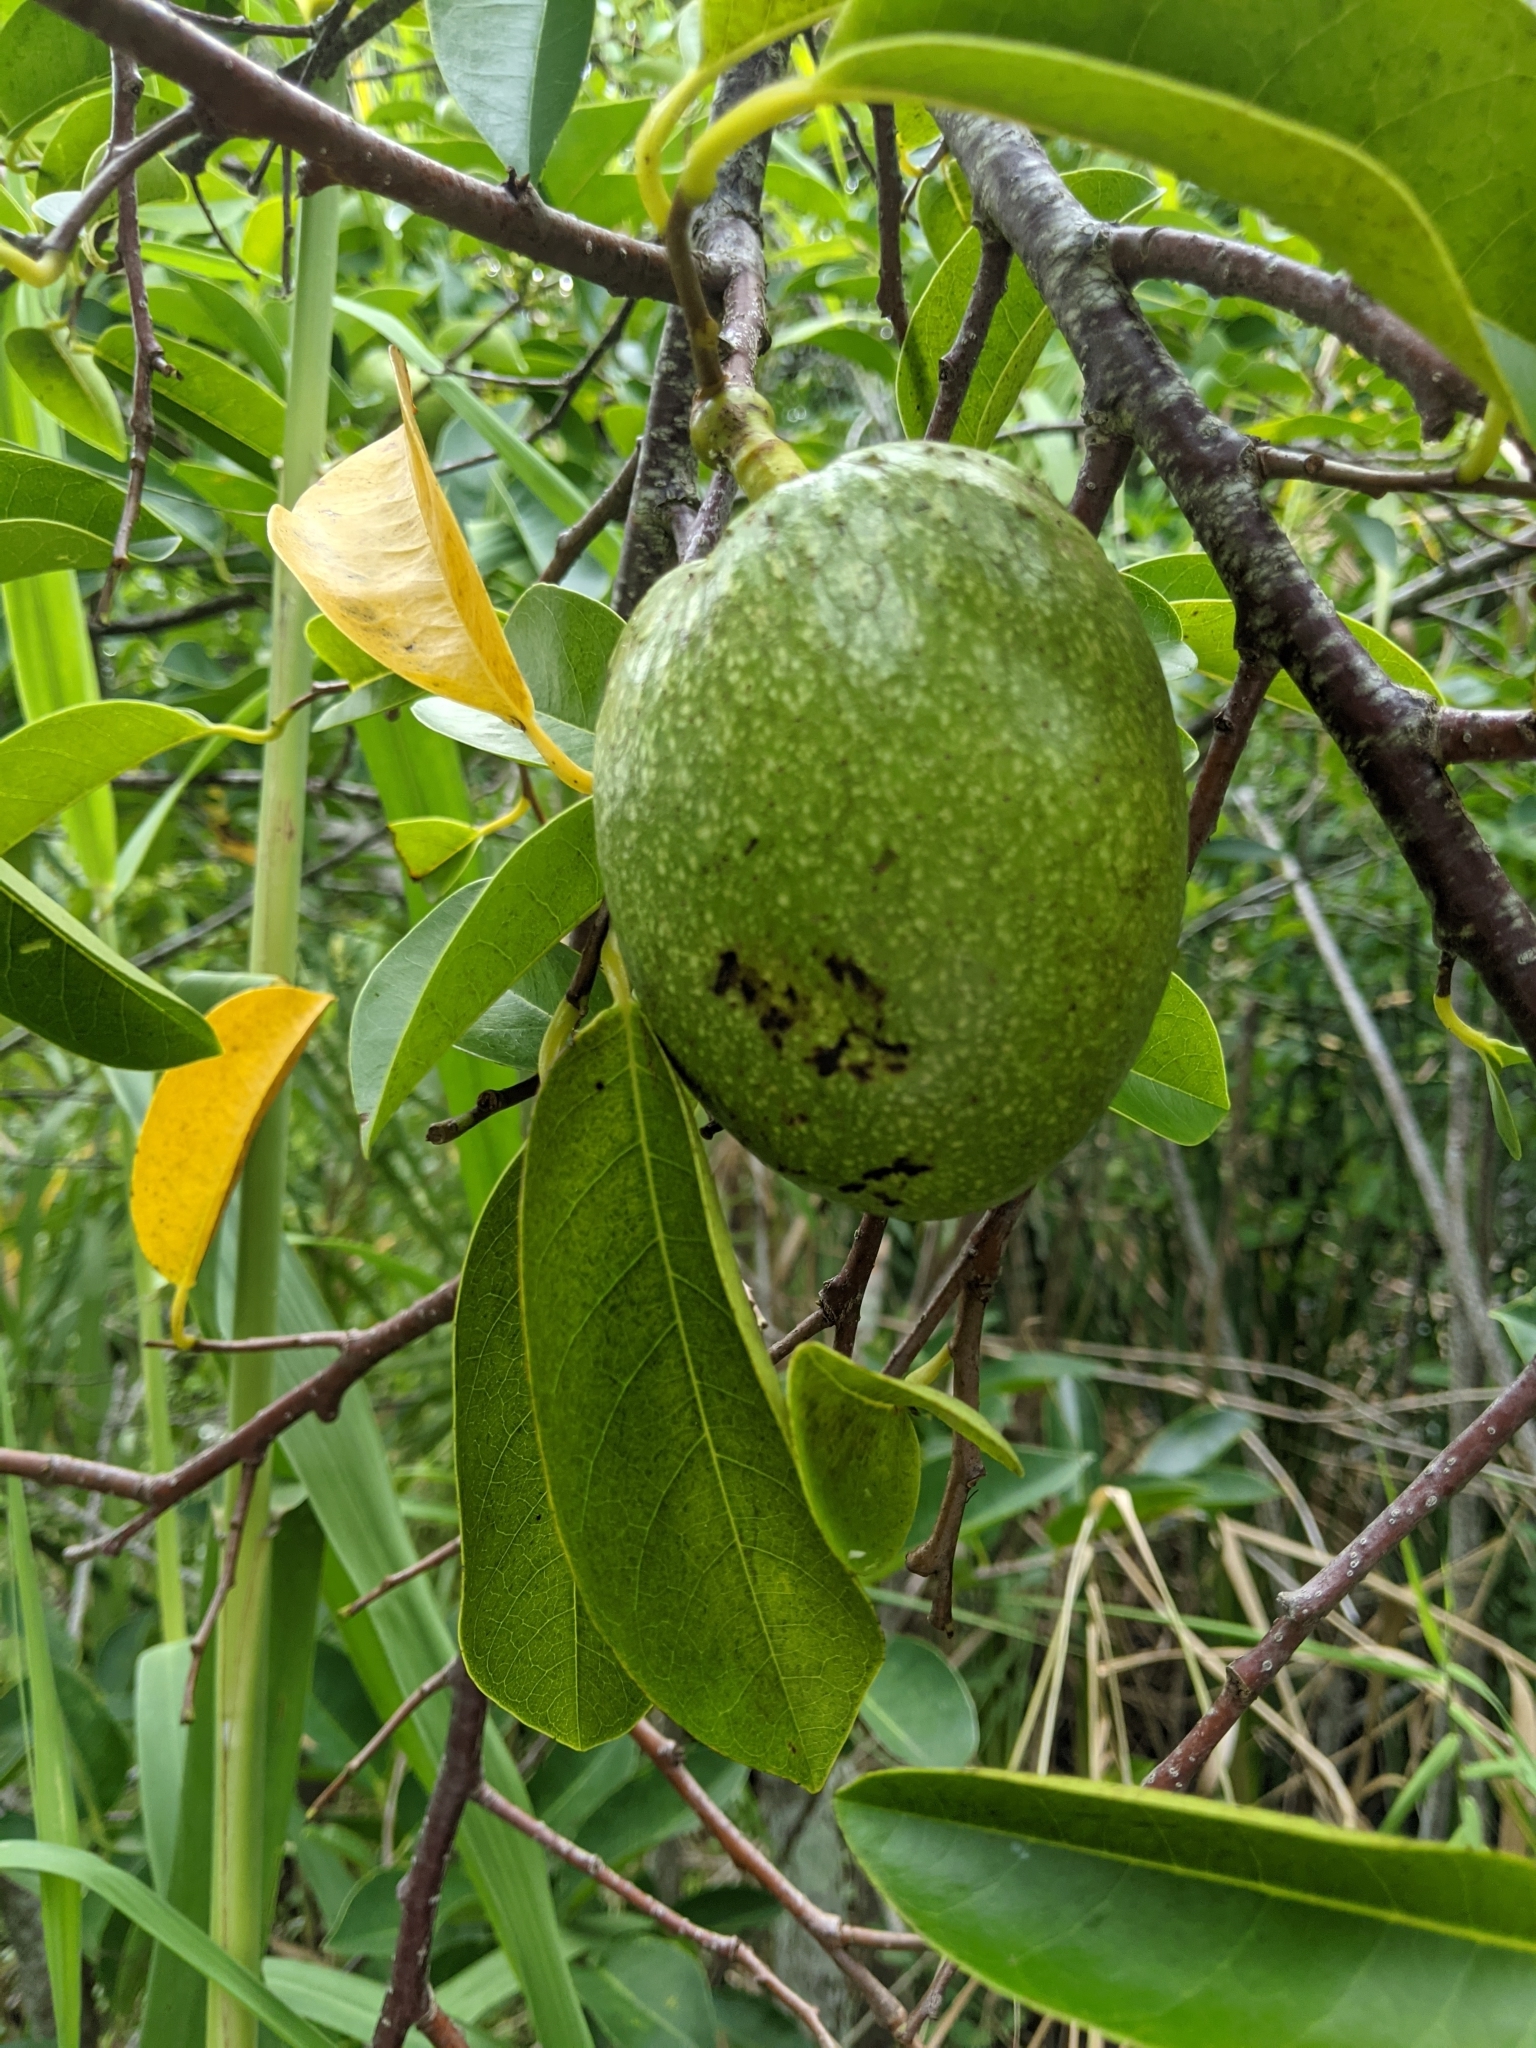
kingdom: Plantae
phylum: Tracheophyta
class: Magnoliopsida
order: Magnoliales
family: Annonaceae
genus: Annona
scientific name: Annona glabra
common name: Monkey apple
